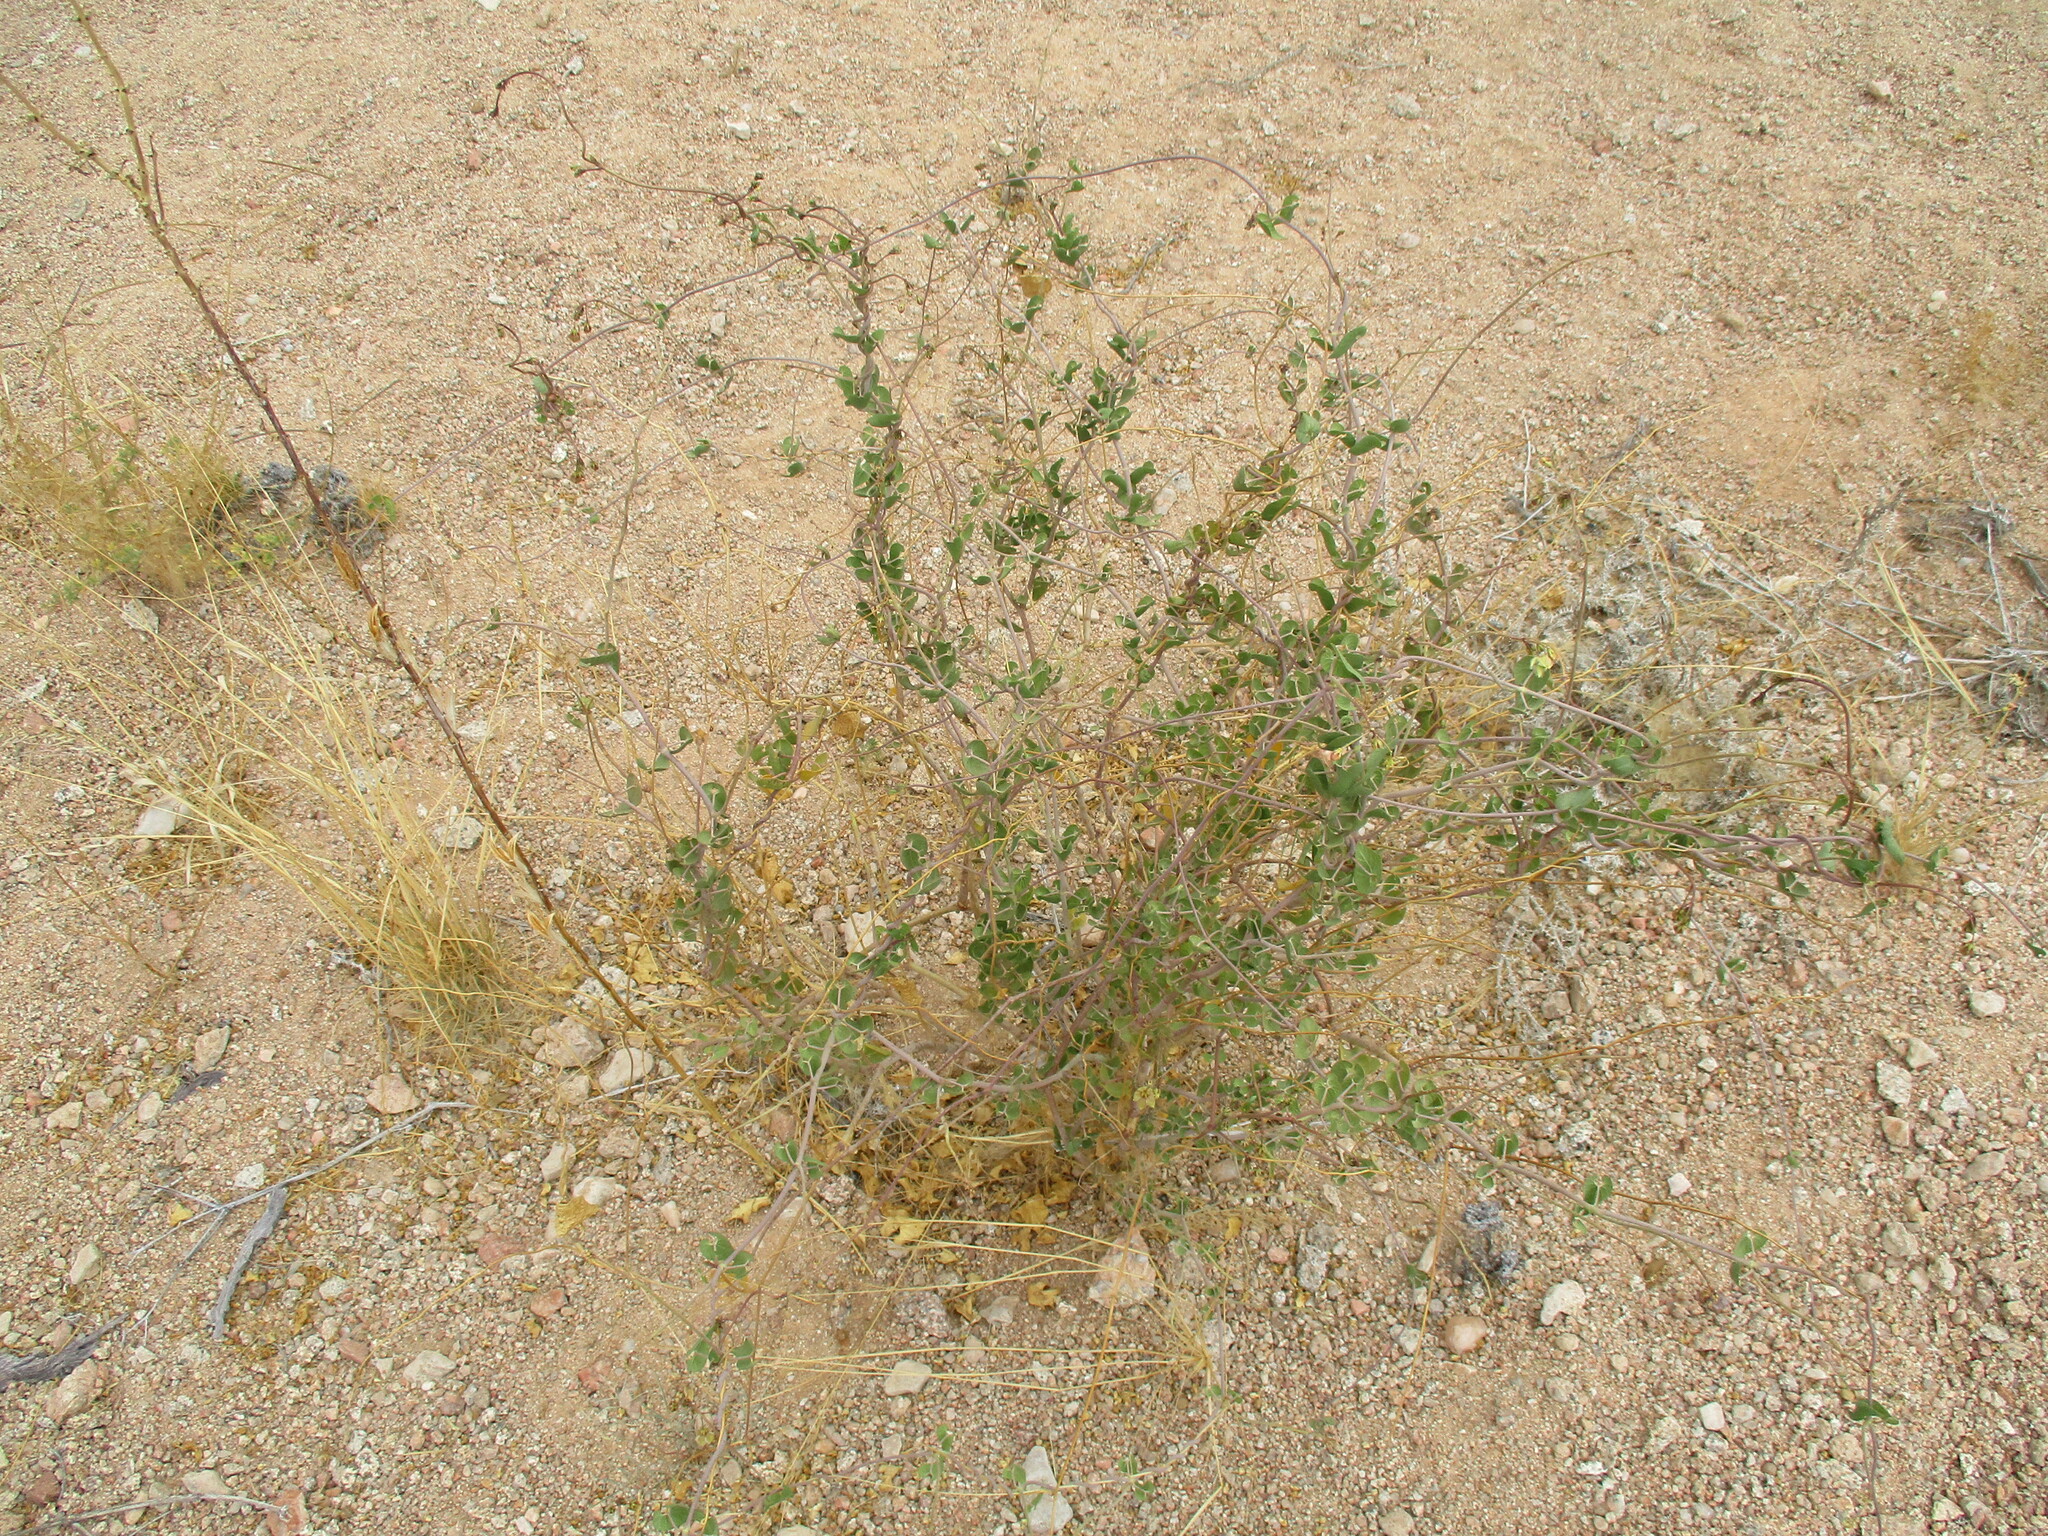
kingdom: Plantae
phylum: Tracheophyta
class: Magnoliopsida
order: Gentianales
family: Apocynaceae
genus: Pergularia
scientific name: Pergularia daemia
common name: Trellis-vine
